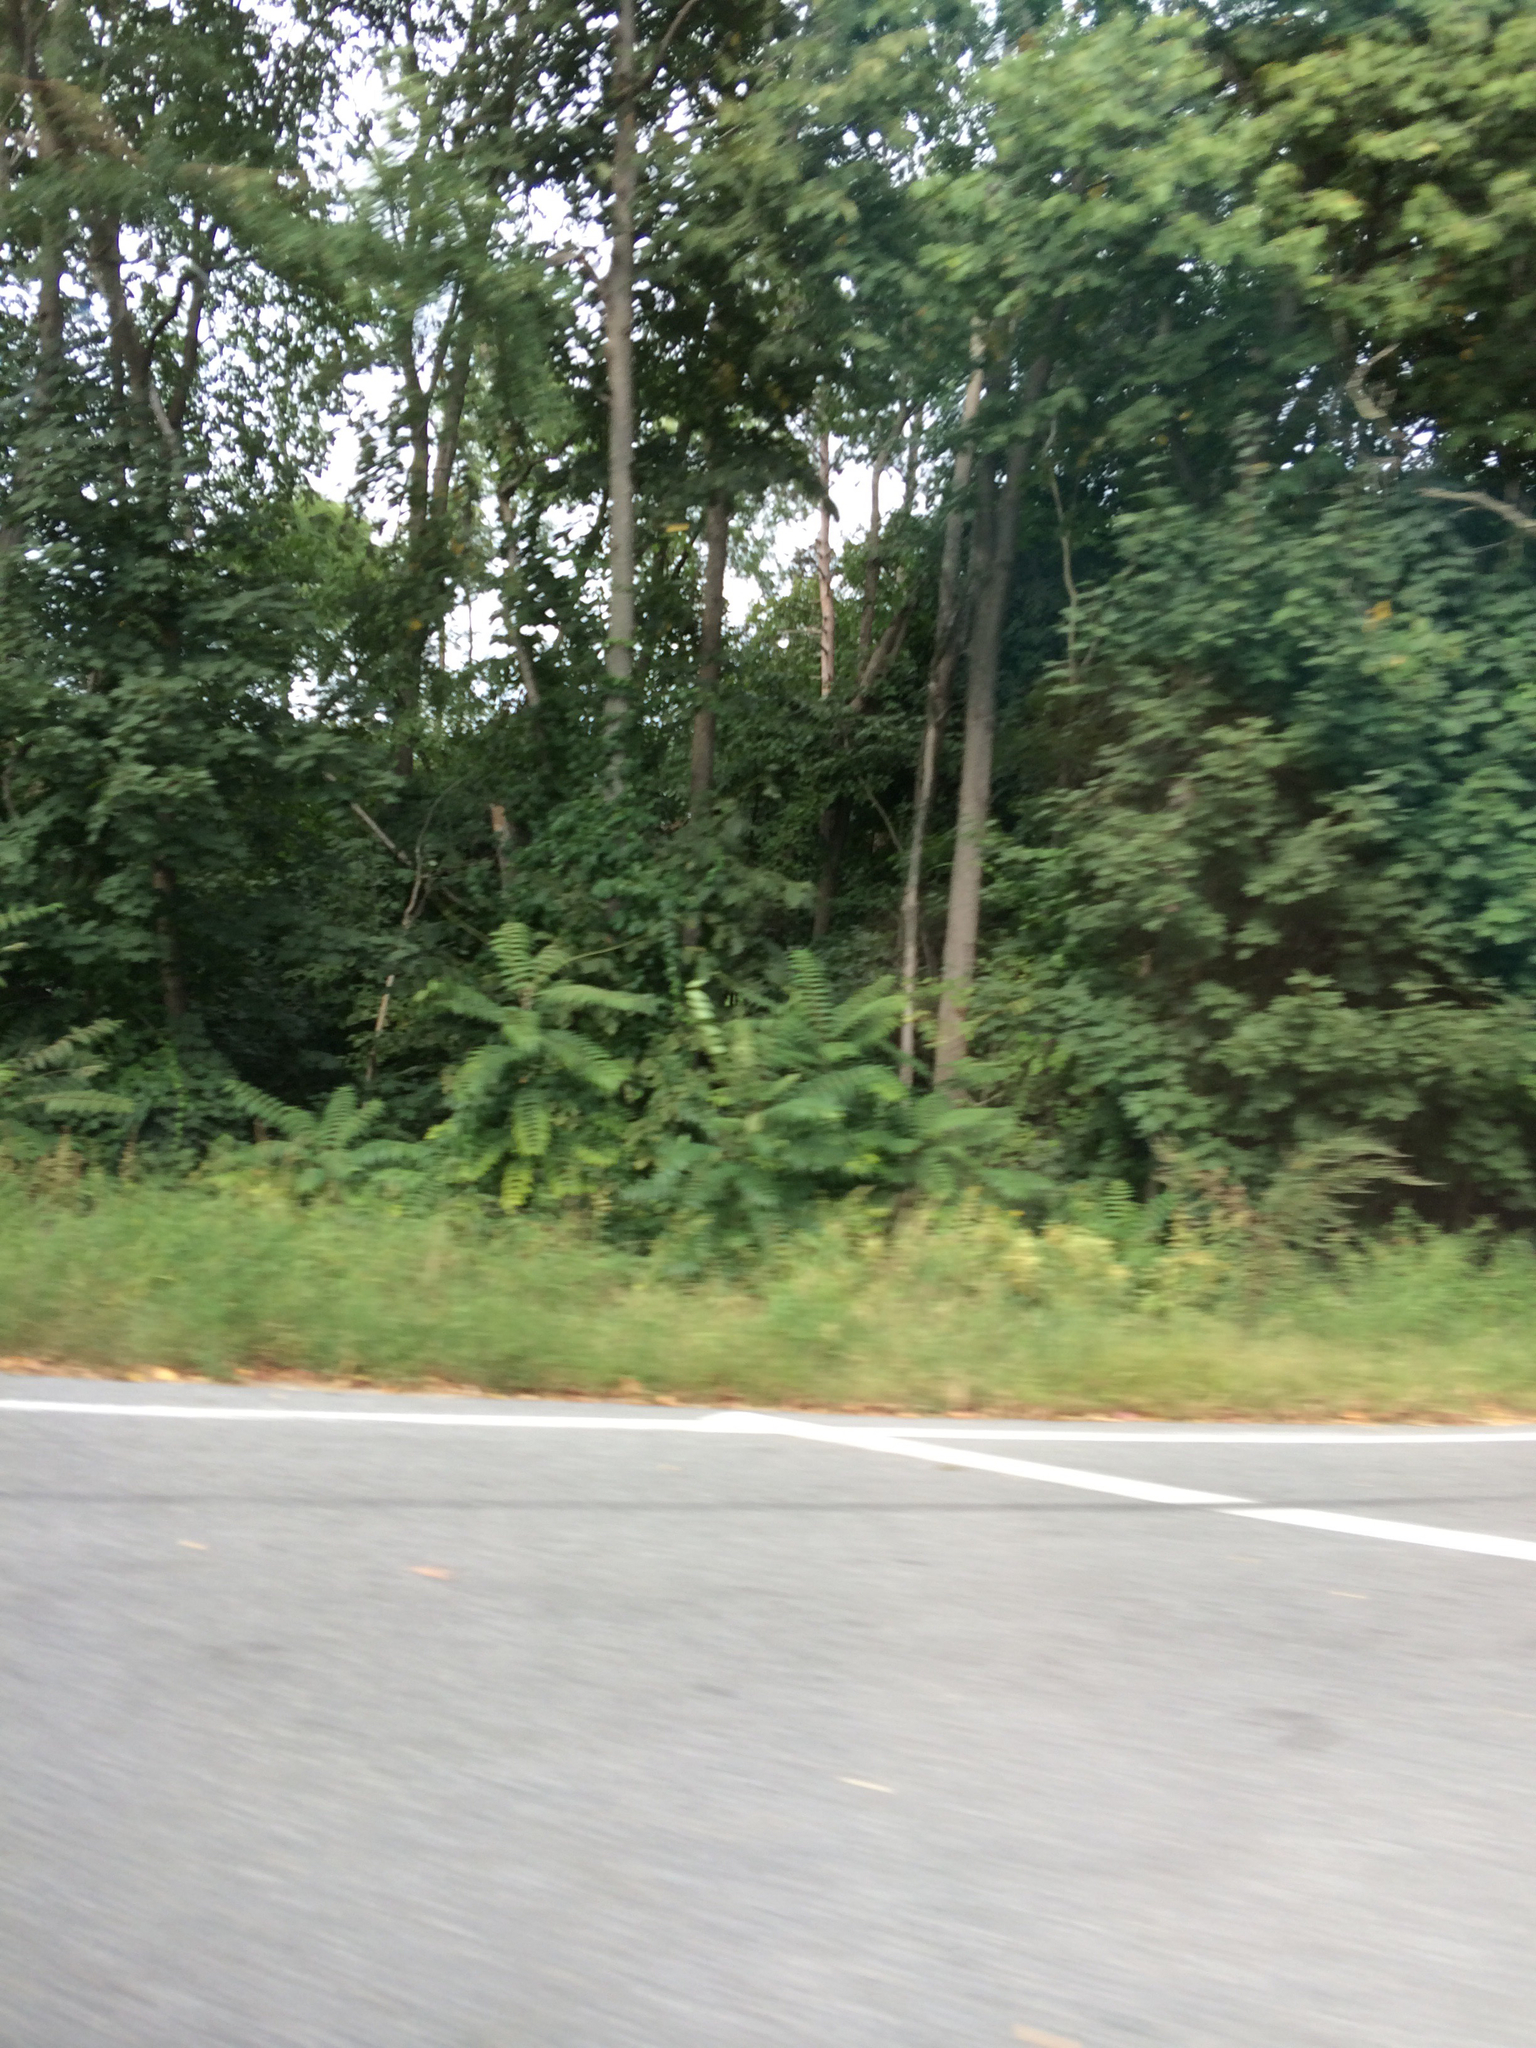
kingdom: Plantae
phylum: Tracheophyta
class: Magnoliopsida
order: Sapindales
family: Simaroubaceae
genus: Ailanthus
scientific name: Ailanthus altissima
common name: Tree-of-heaven
